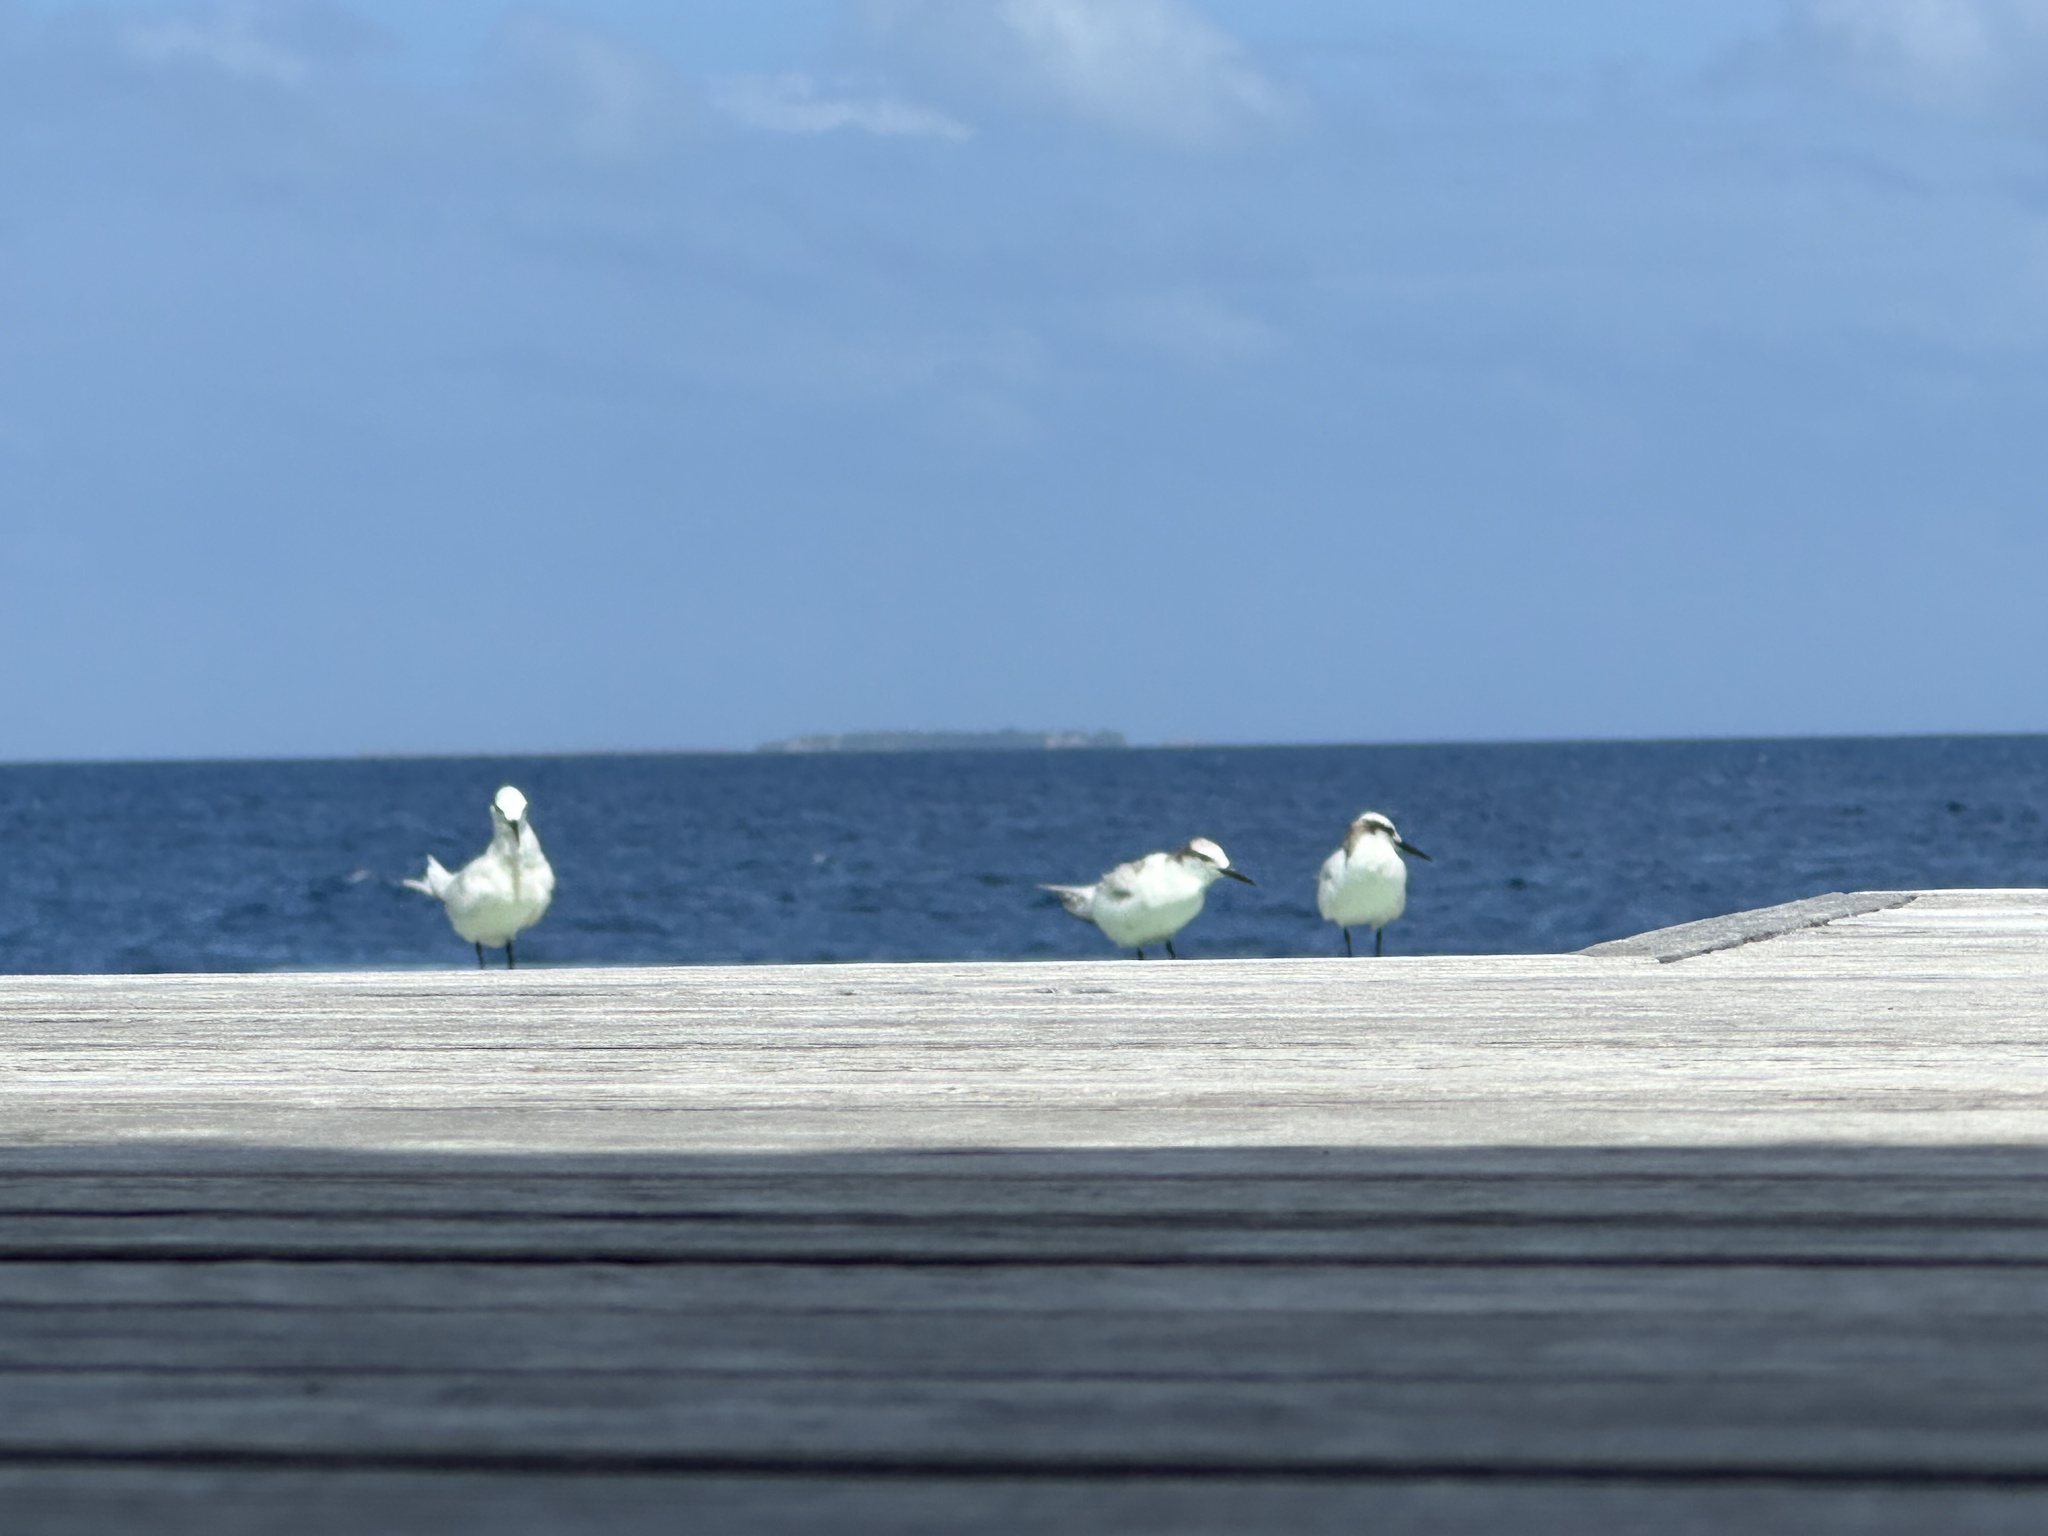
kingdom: Animalia
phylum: Chordata
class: Aves
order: Charadriiformes
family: Laridae
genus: Sterna
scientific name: Sterna sumatrana
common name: Black-naped tern
